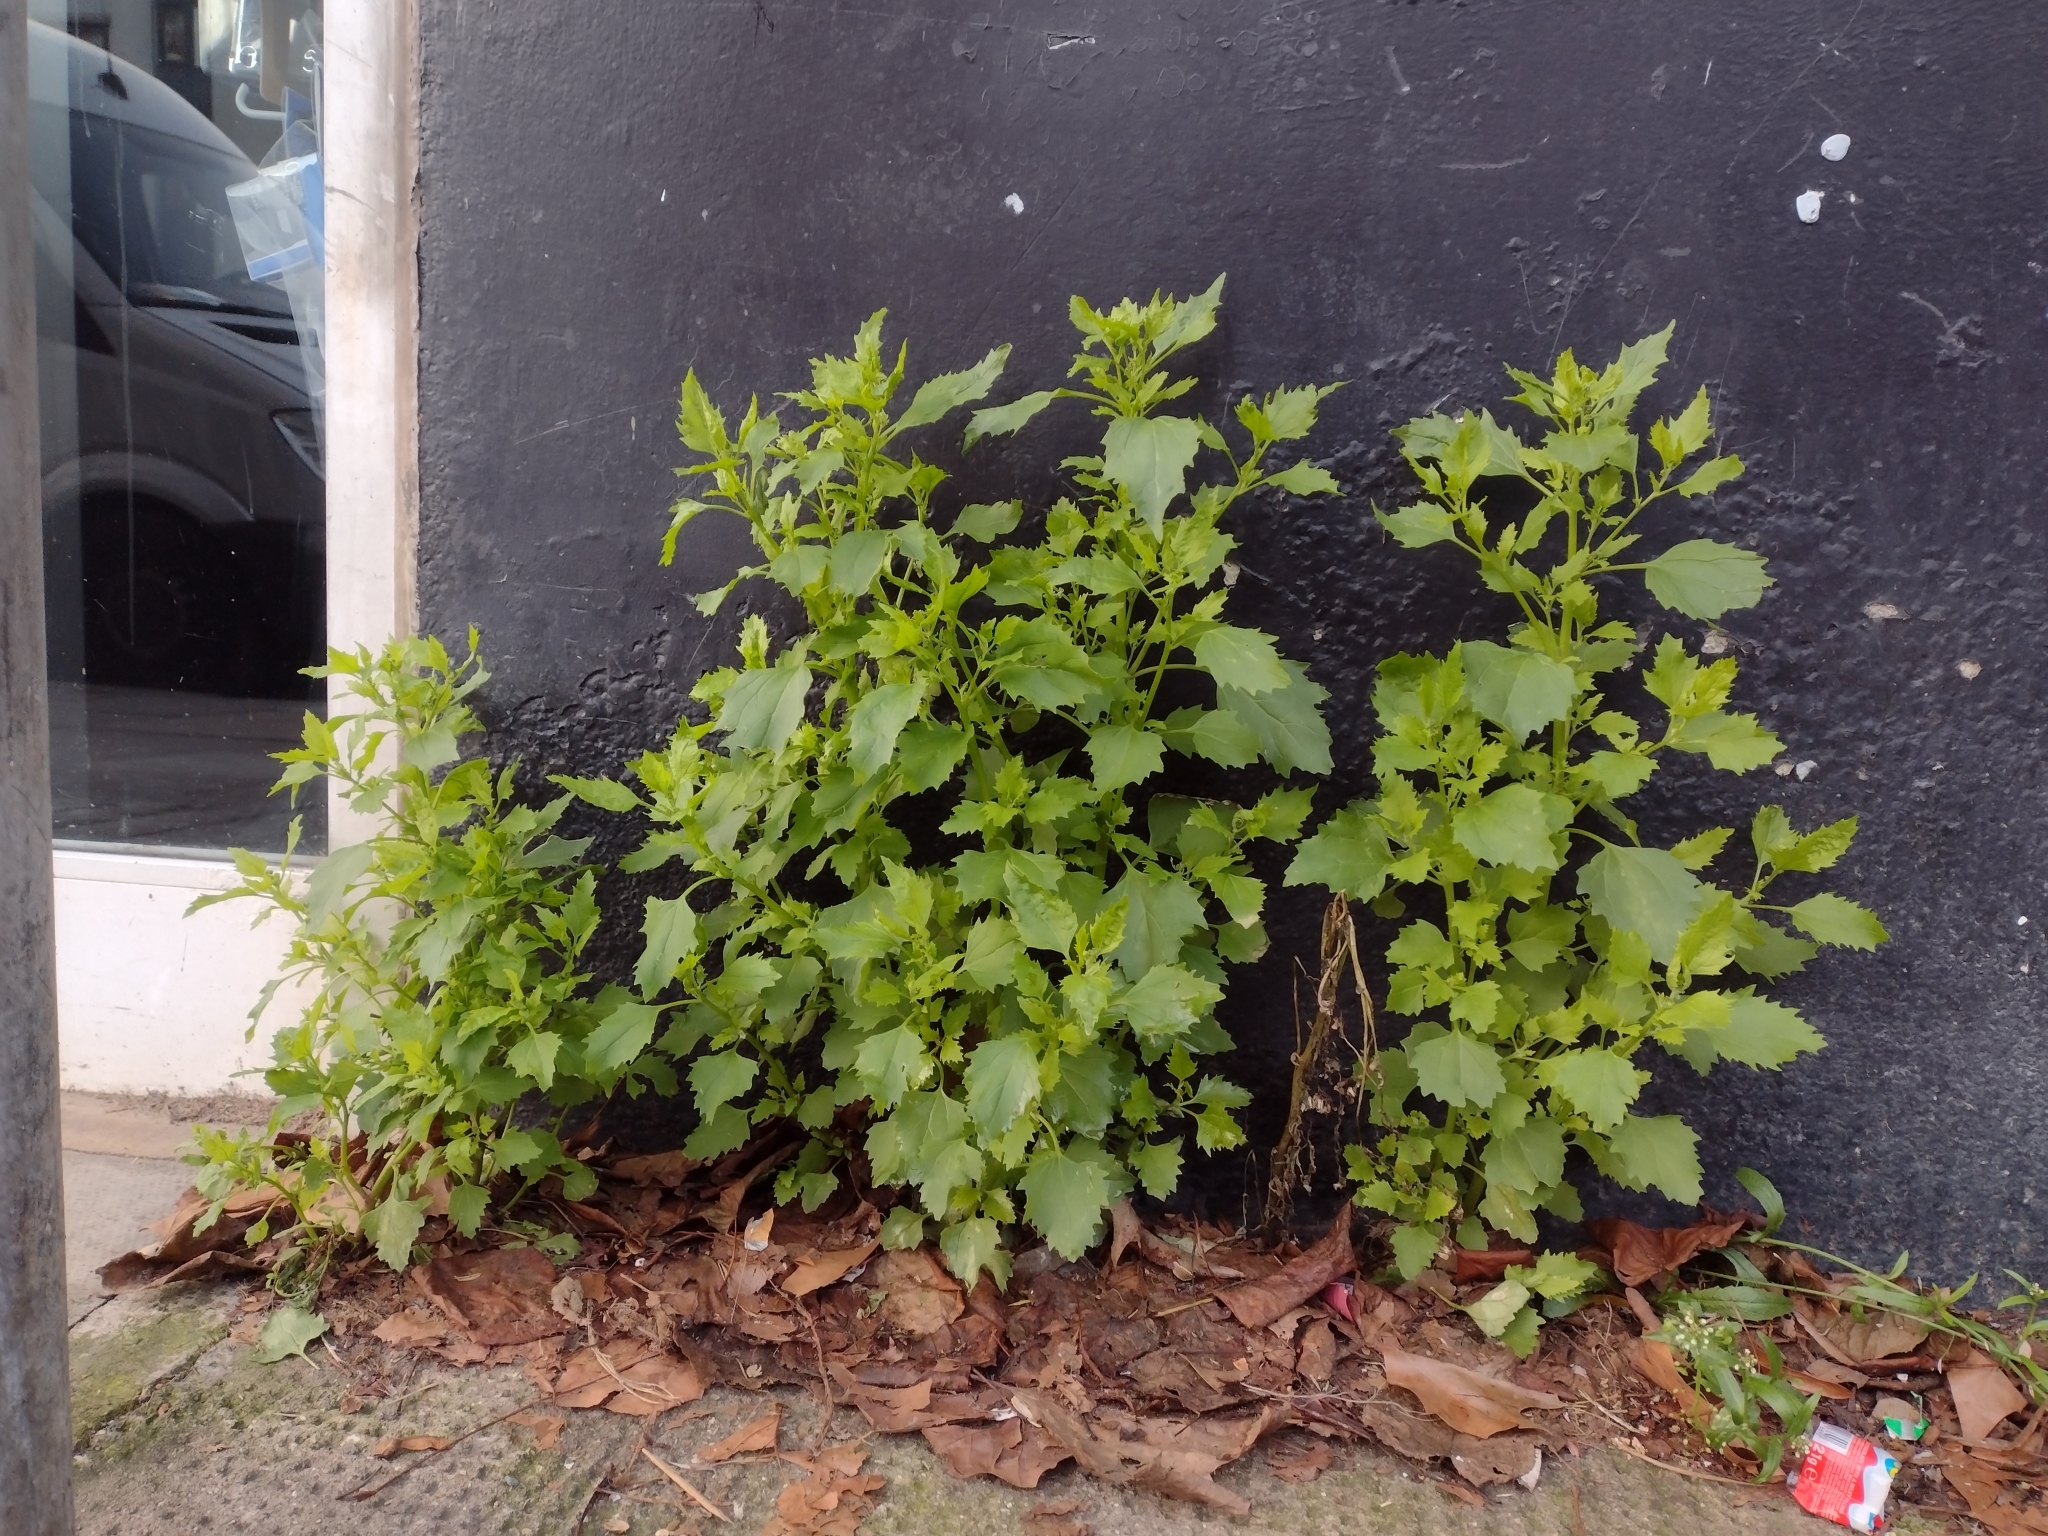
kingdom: Plantae
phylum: Tracheophyta
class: Magnoliopsida
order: Caryophyllales
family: Amaranthaceae
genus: Chenopodiastrum
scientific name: Chenopodiastrum murale
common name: Sowbane
